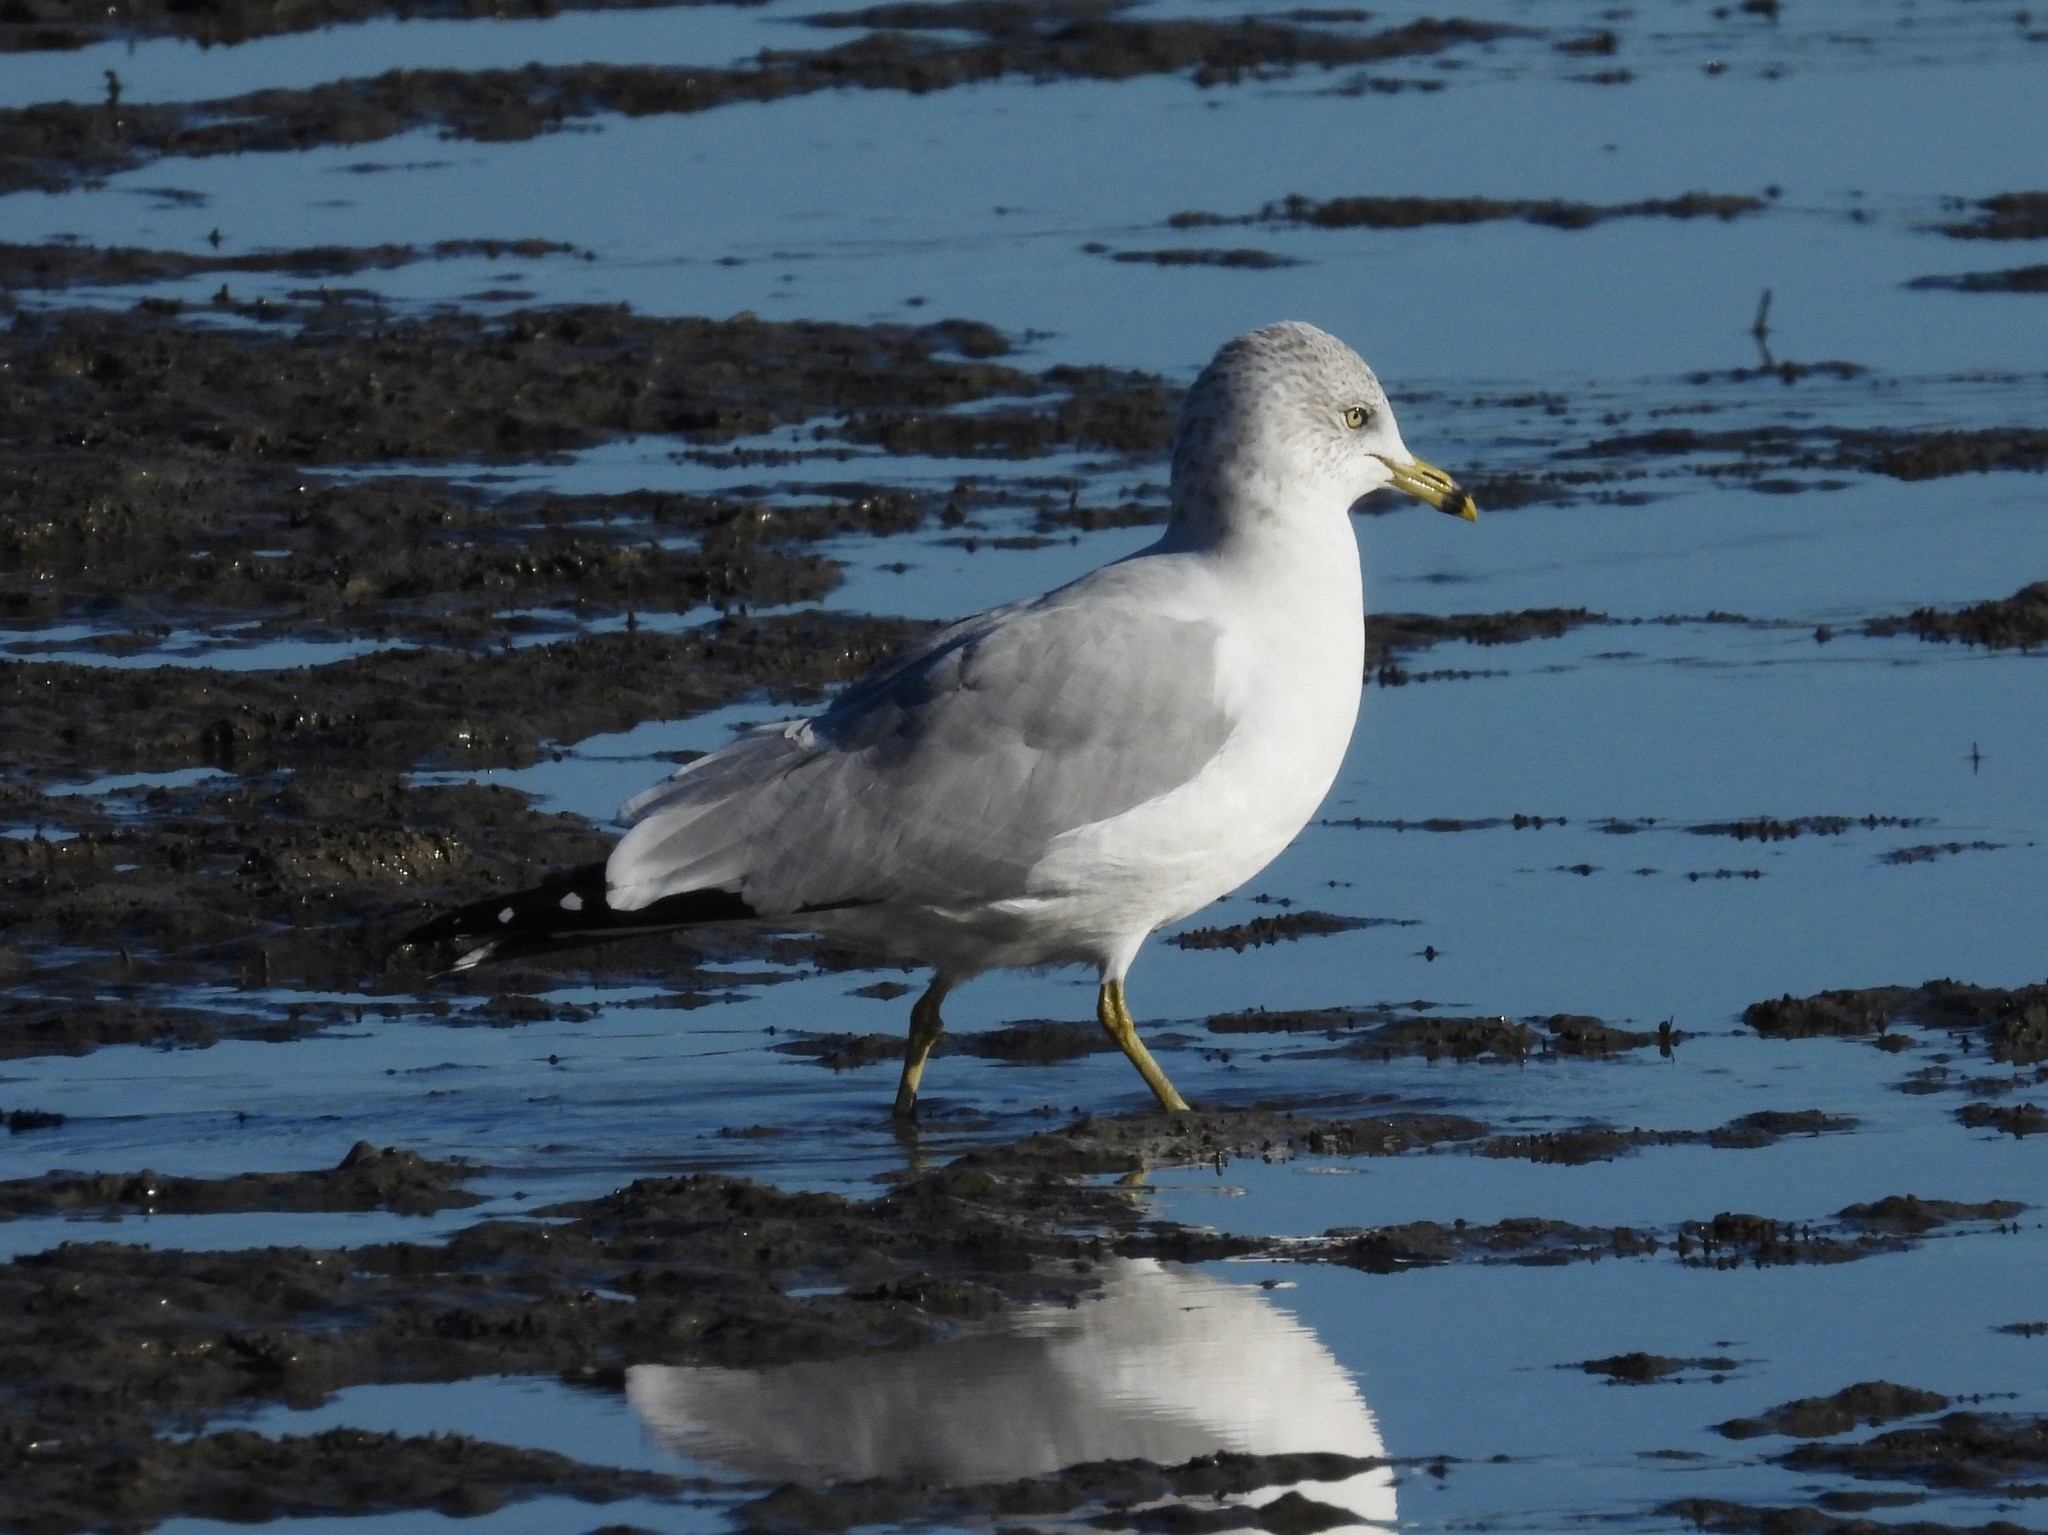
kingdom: Animalia
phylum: Chordata
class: Aves
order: Charadriiformes
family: Laridae
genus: Larus
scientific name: Larus delawarensis
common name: Ring-billed gull
